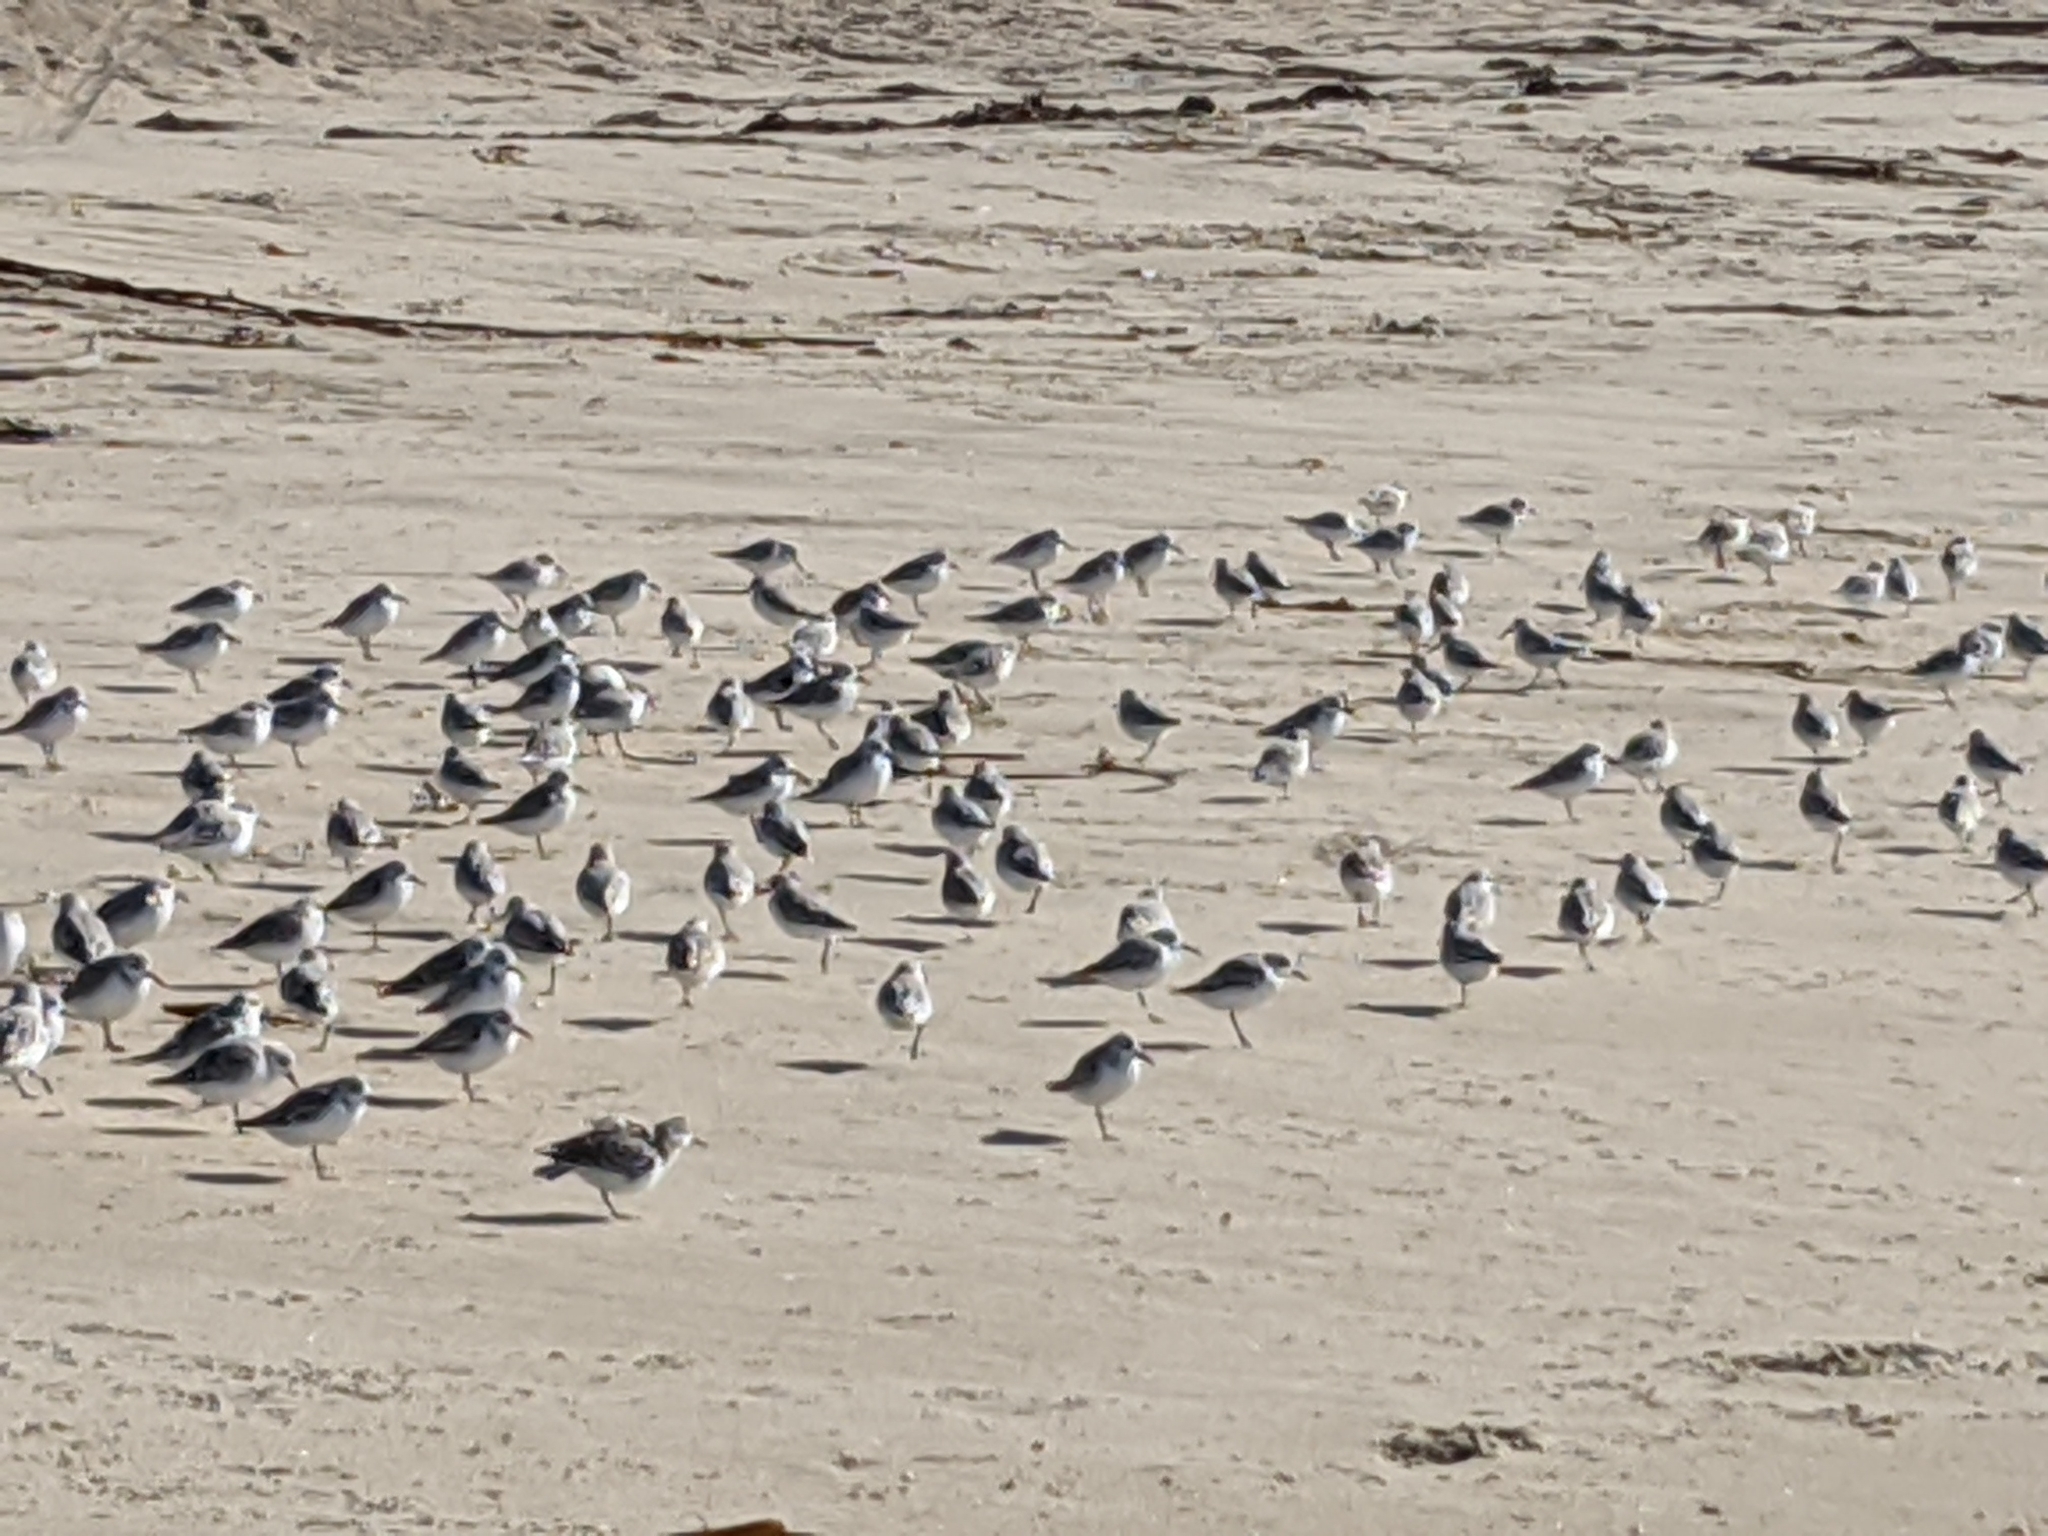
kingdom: Animalia
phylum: Chordata
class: Aves
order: Charadriiformes
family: Scolopacidae
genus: Calidris
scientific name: Calidris alba
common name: Sanderling
